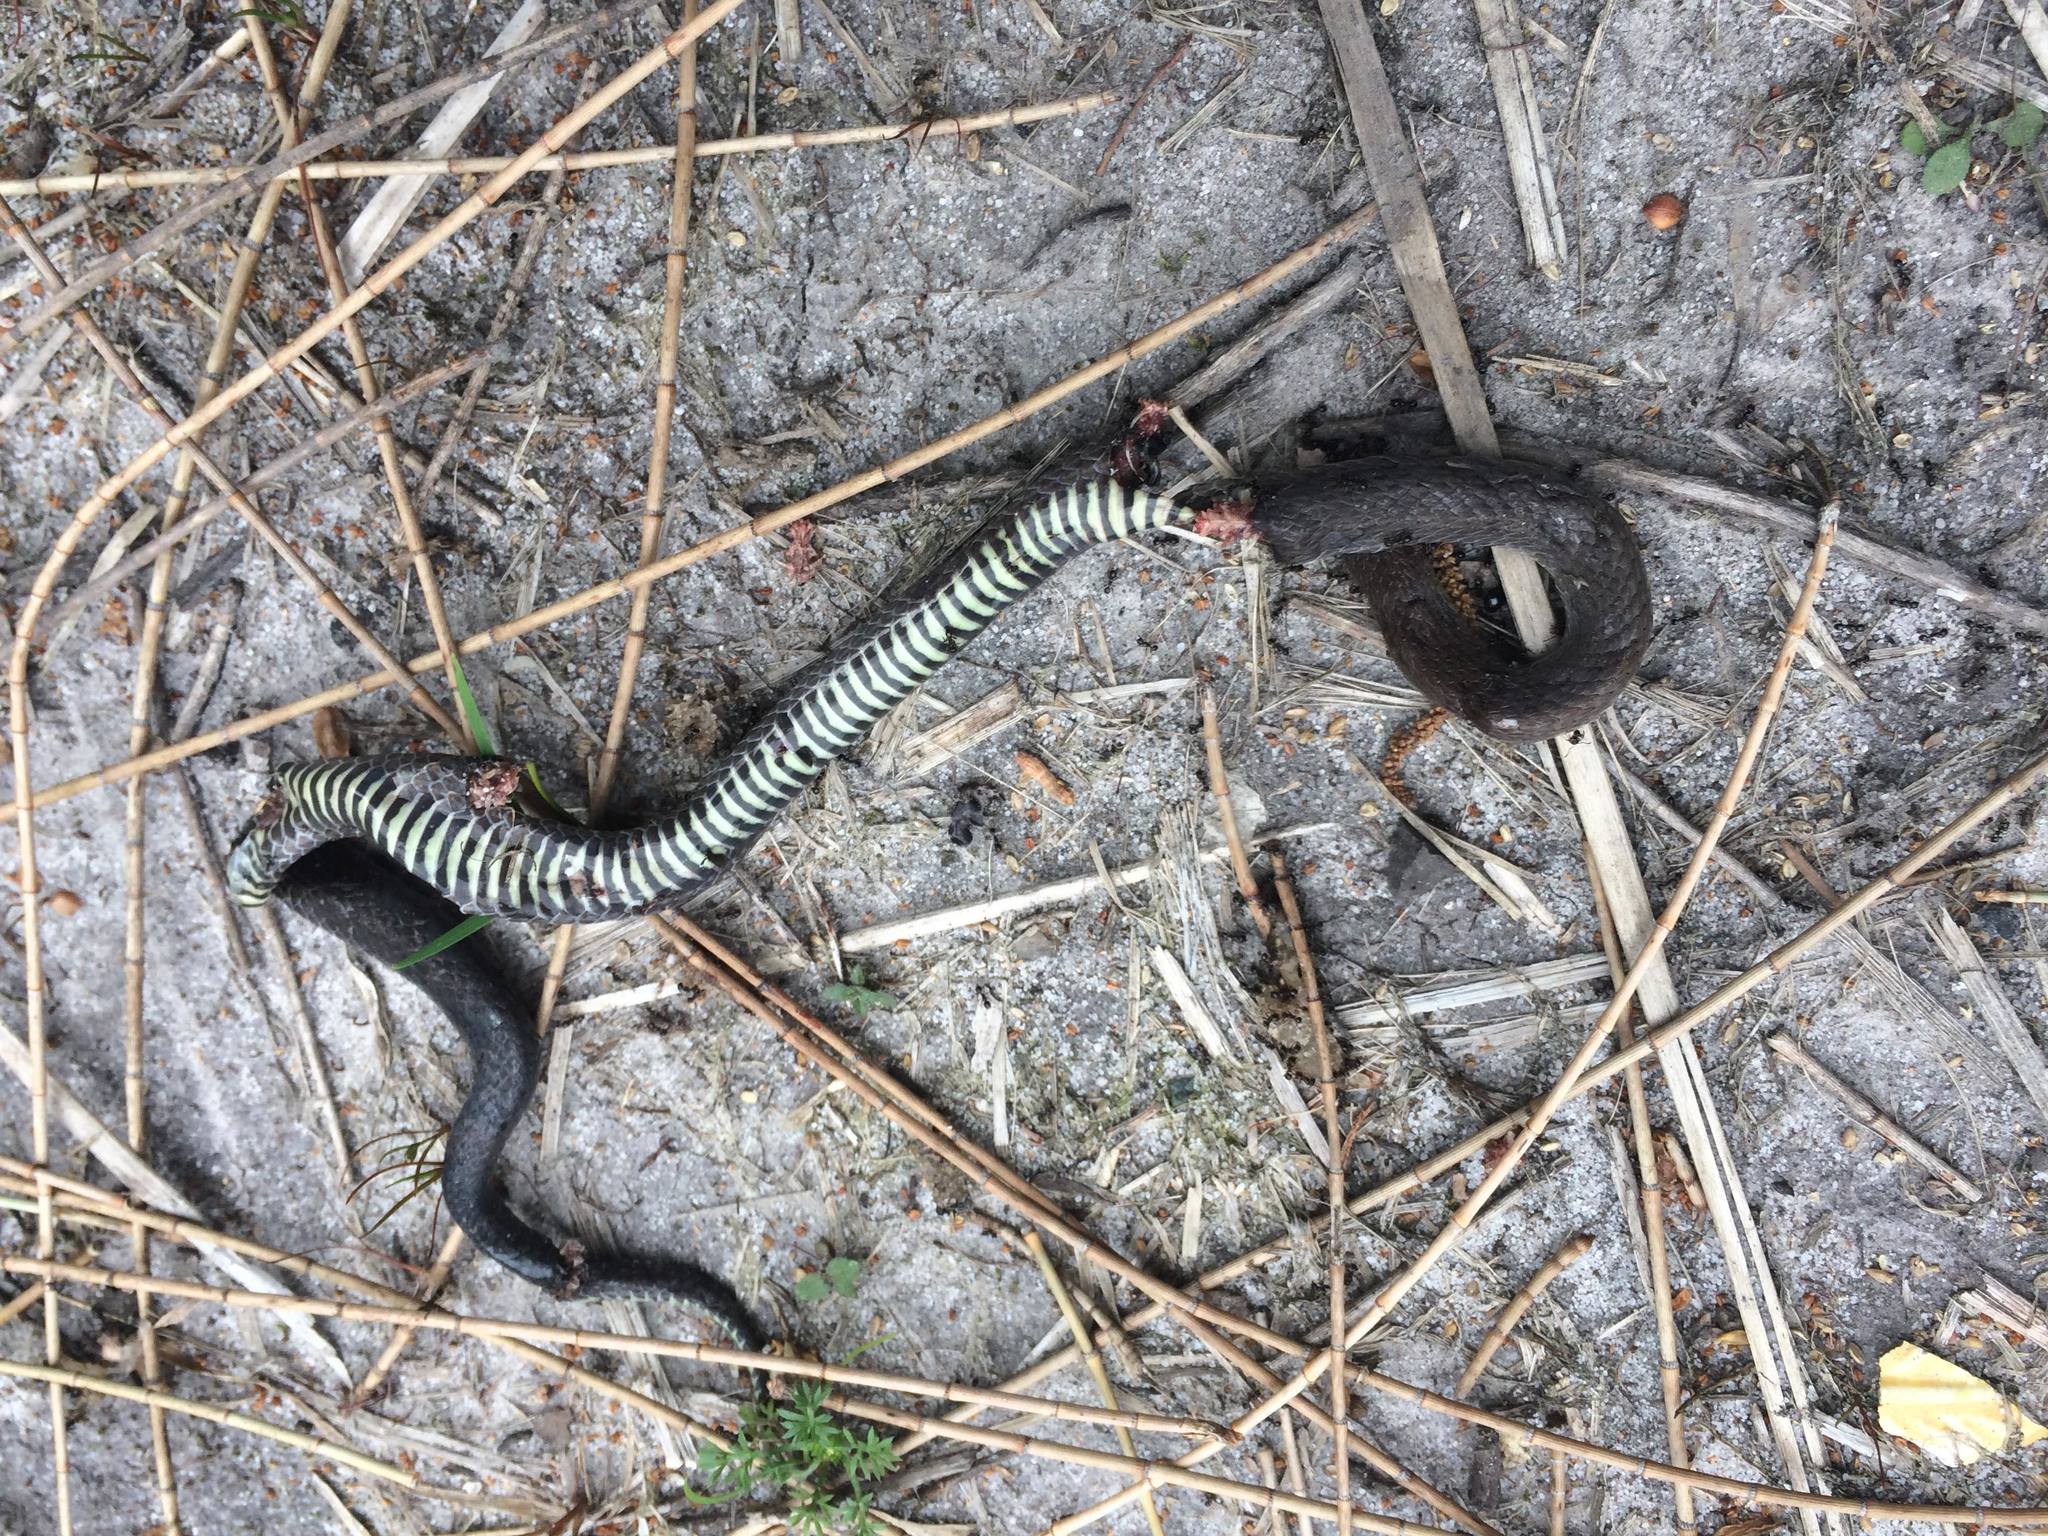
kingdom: Animalia
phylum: Chordata
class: Squamata
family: Elapidae
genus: Cacophis
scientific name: Cacophis krefftii
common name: Dwarf crowned snake
